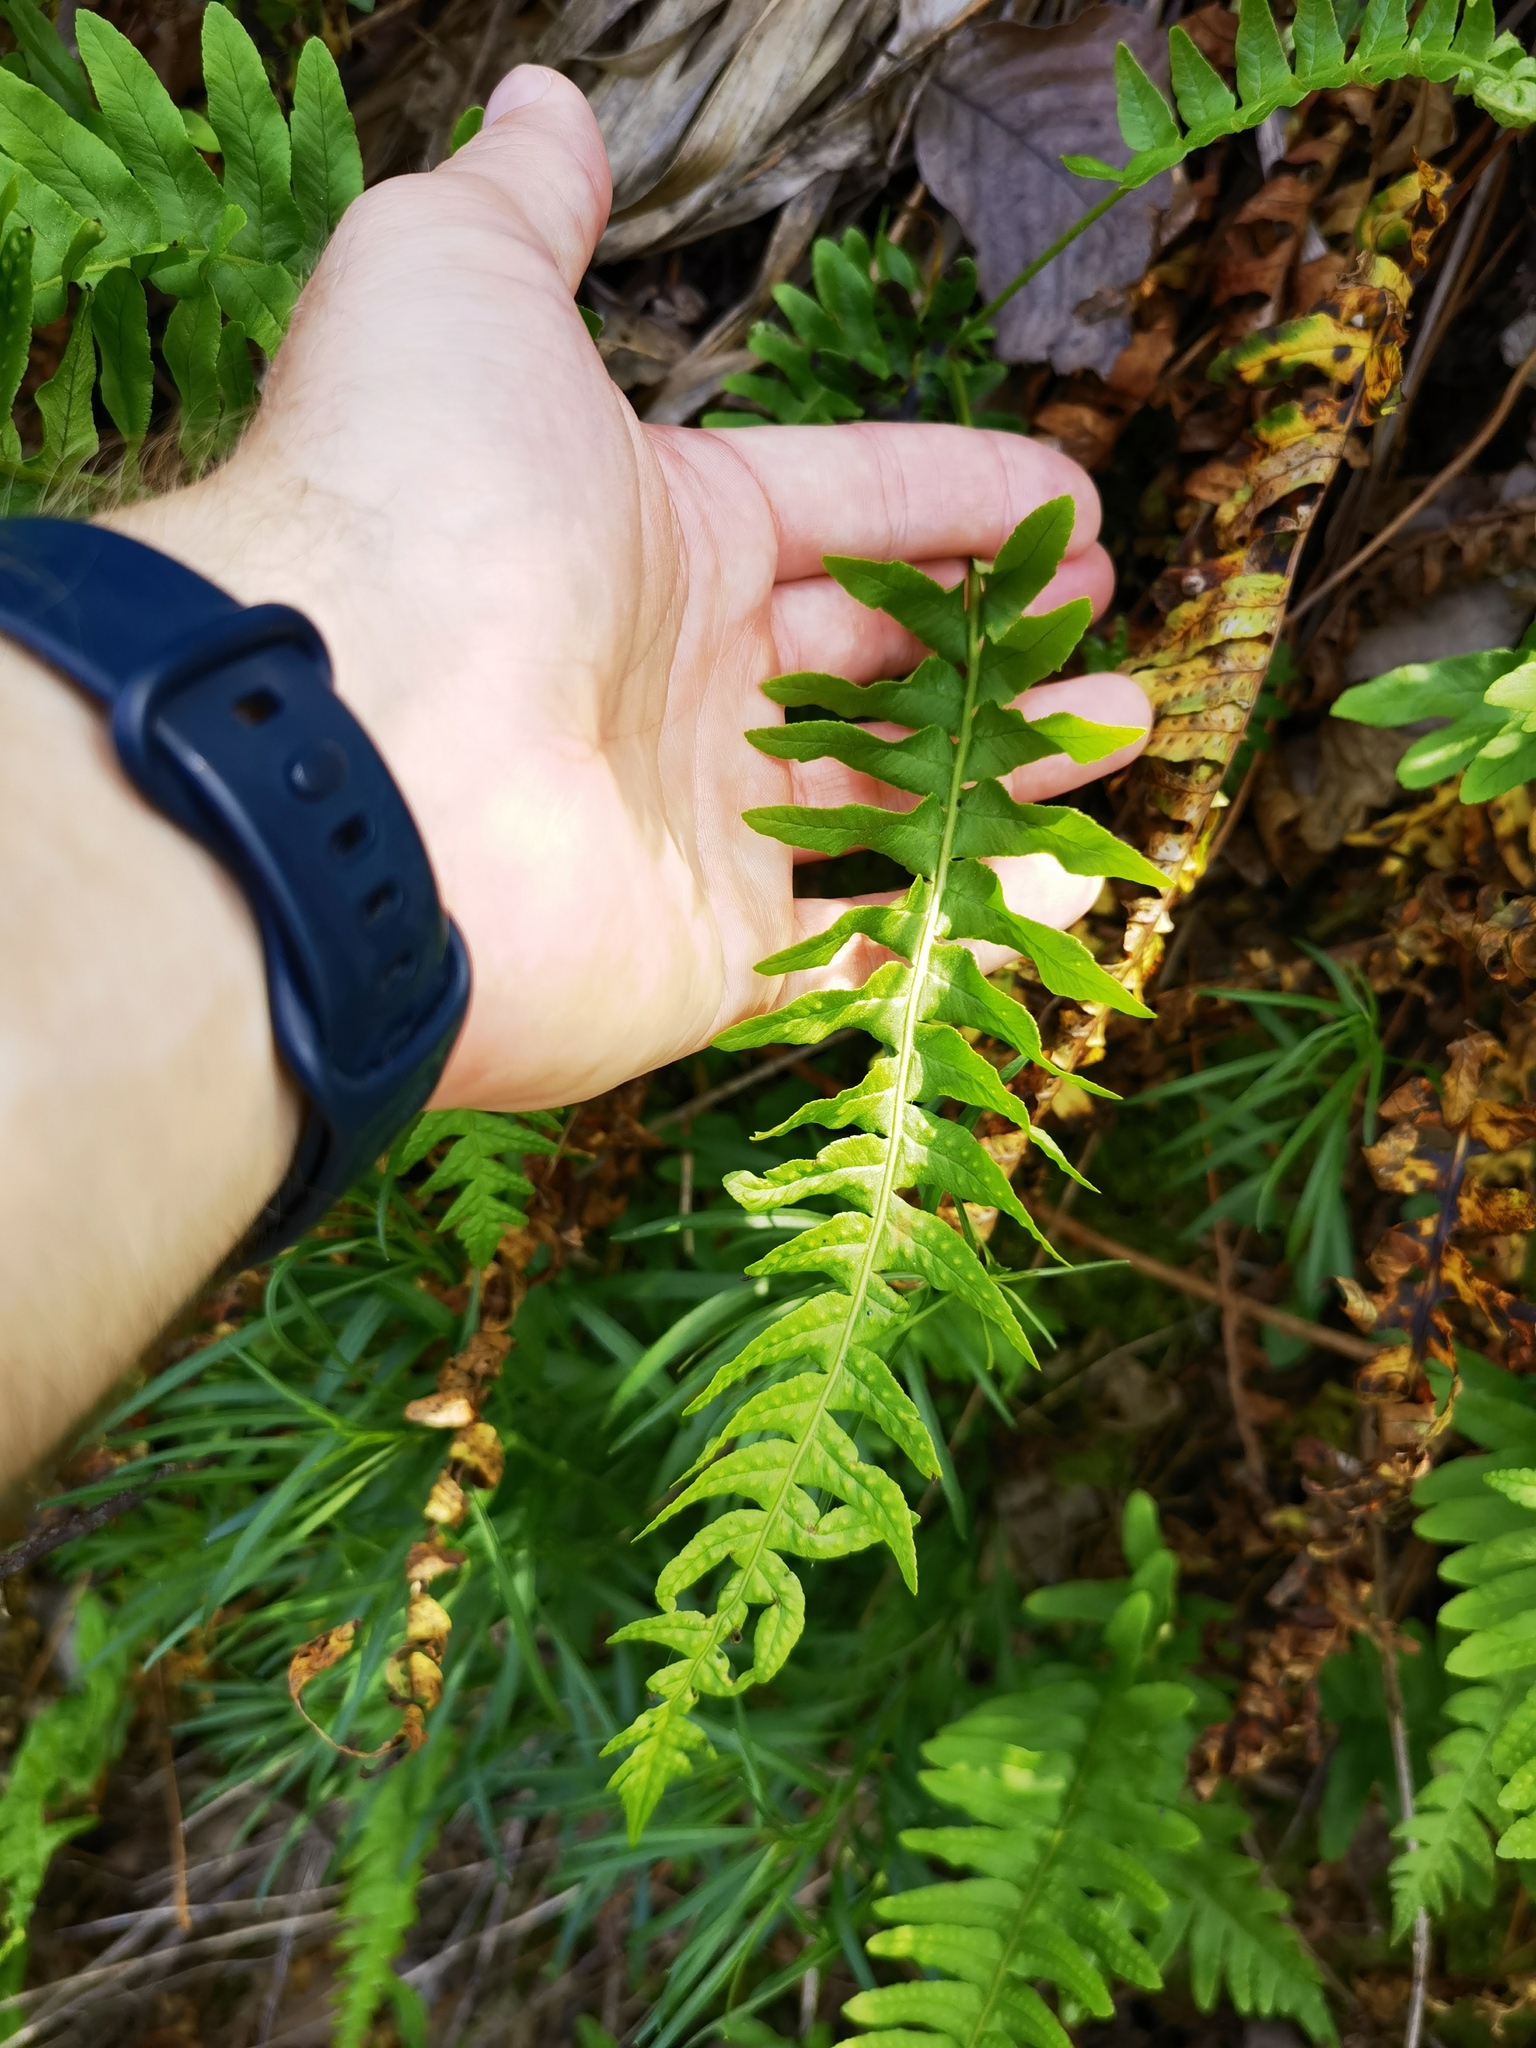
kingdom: Plantae
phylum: Tracheophyta
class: Polypodiopsida
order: Polypodiales
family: Polypodiaceae
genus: Polypodium
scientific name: Polypodium vulgare
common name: Common polypody
